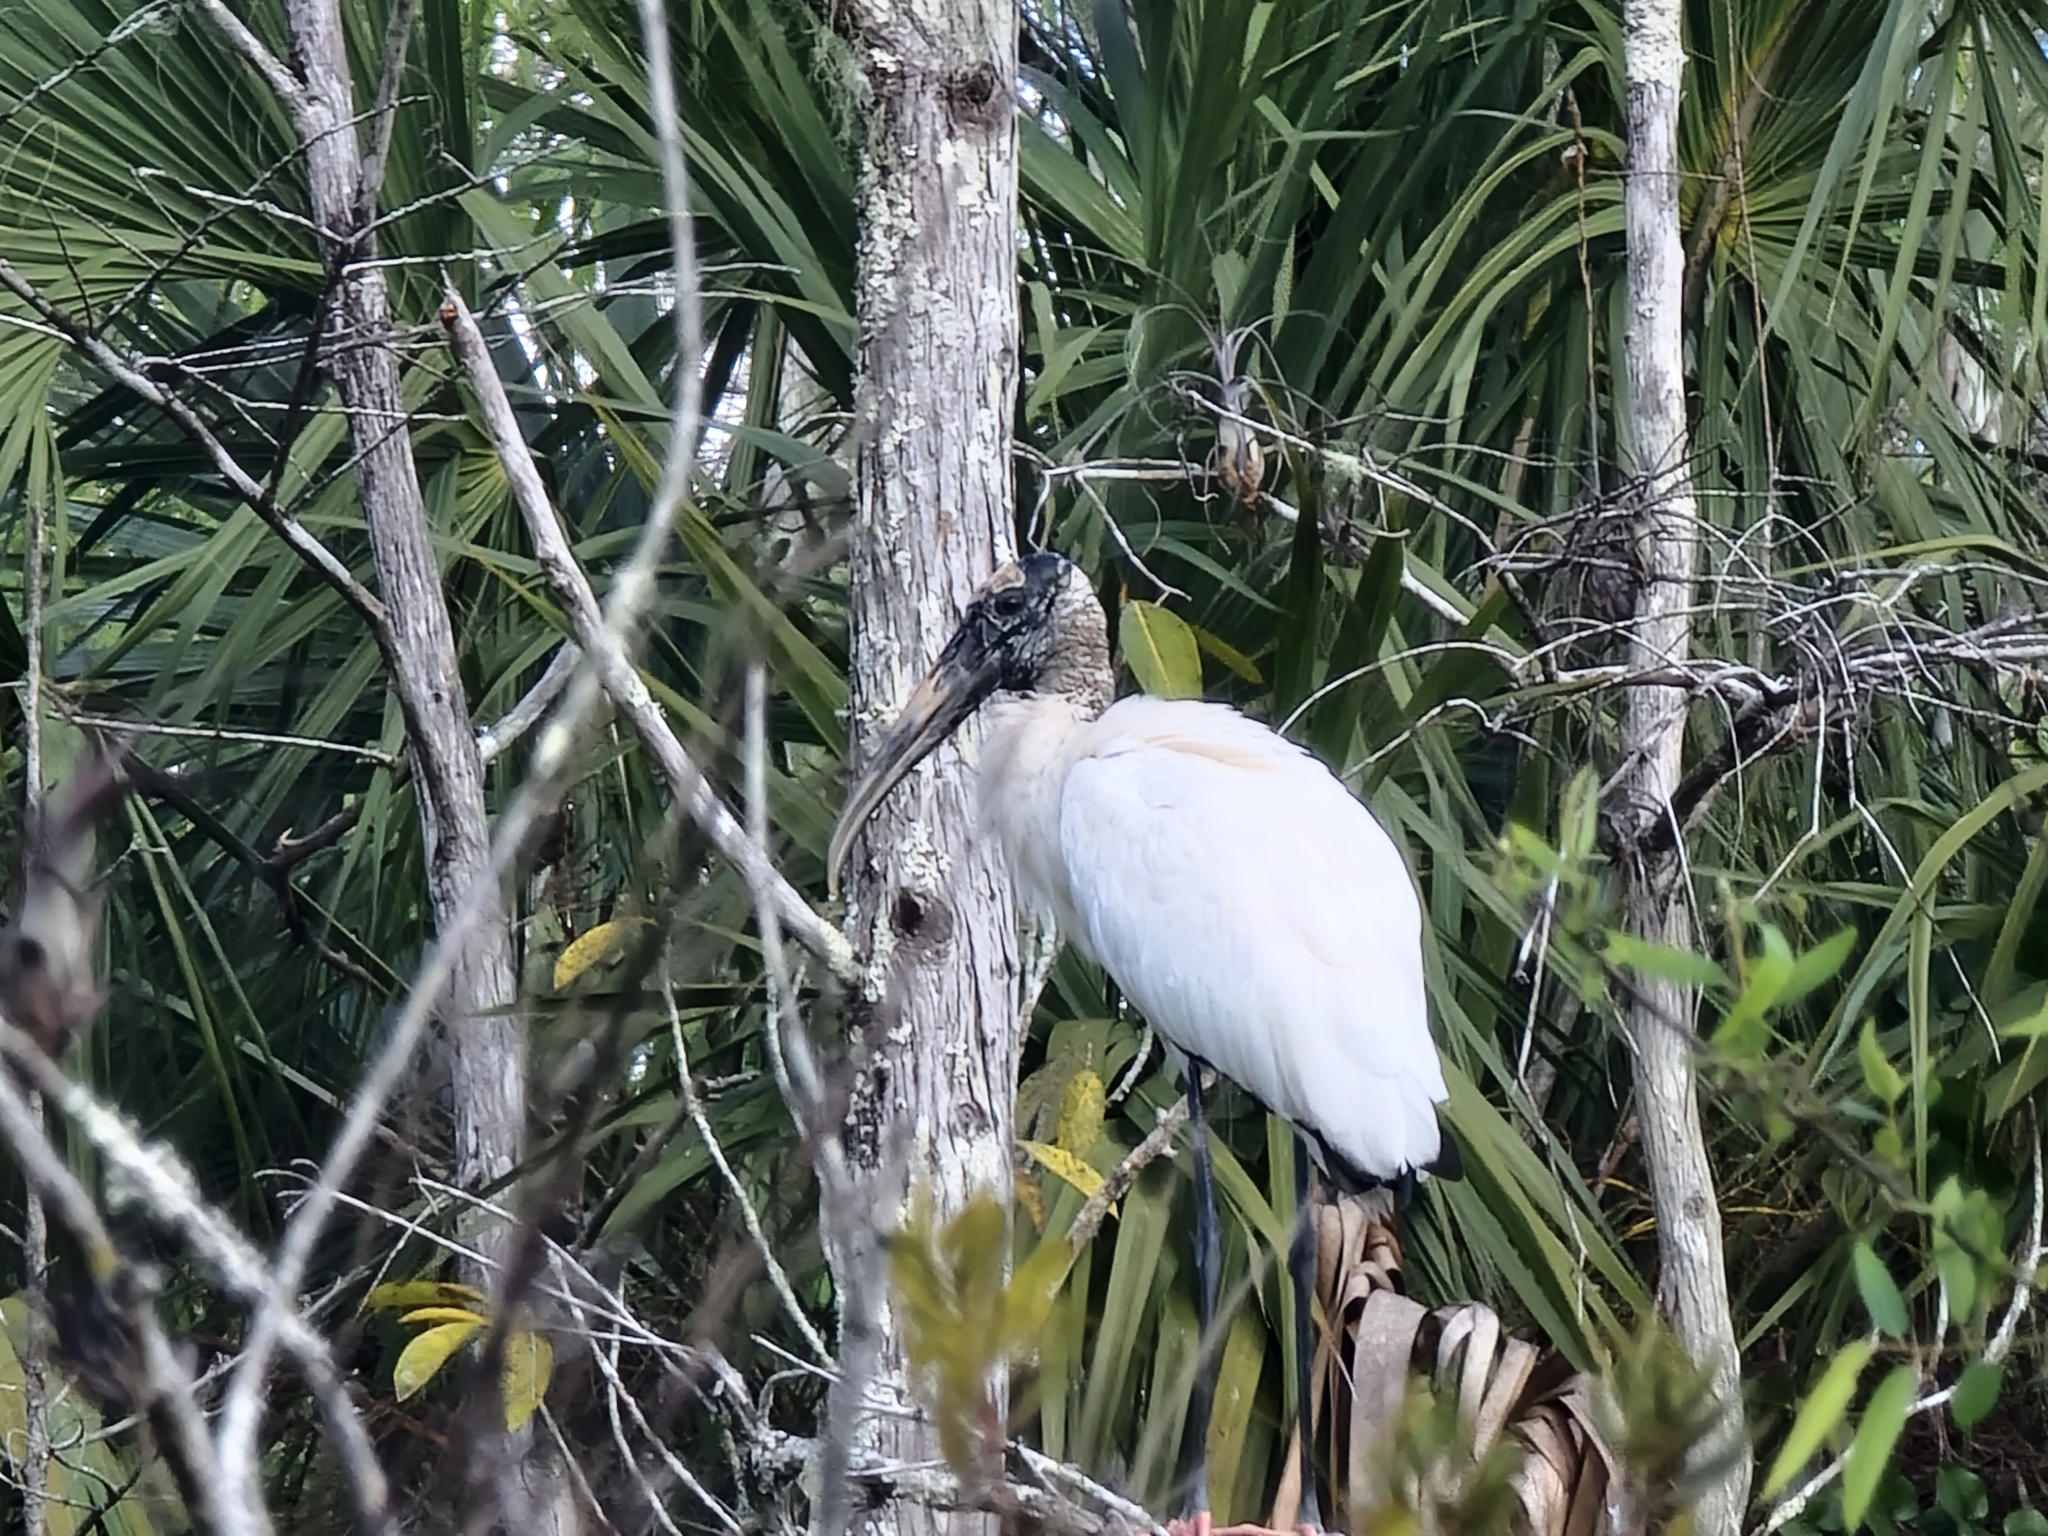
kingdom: Animalia
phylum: Chordata
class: Aves
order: Ciconiiformes
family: Ciconiidae
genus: Mycteria
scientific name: Mycteria americana
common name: Wood stork
